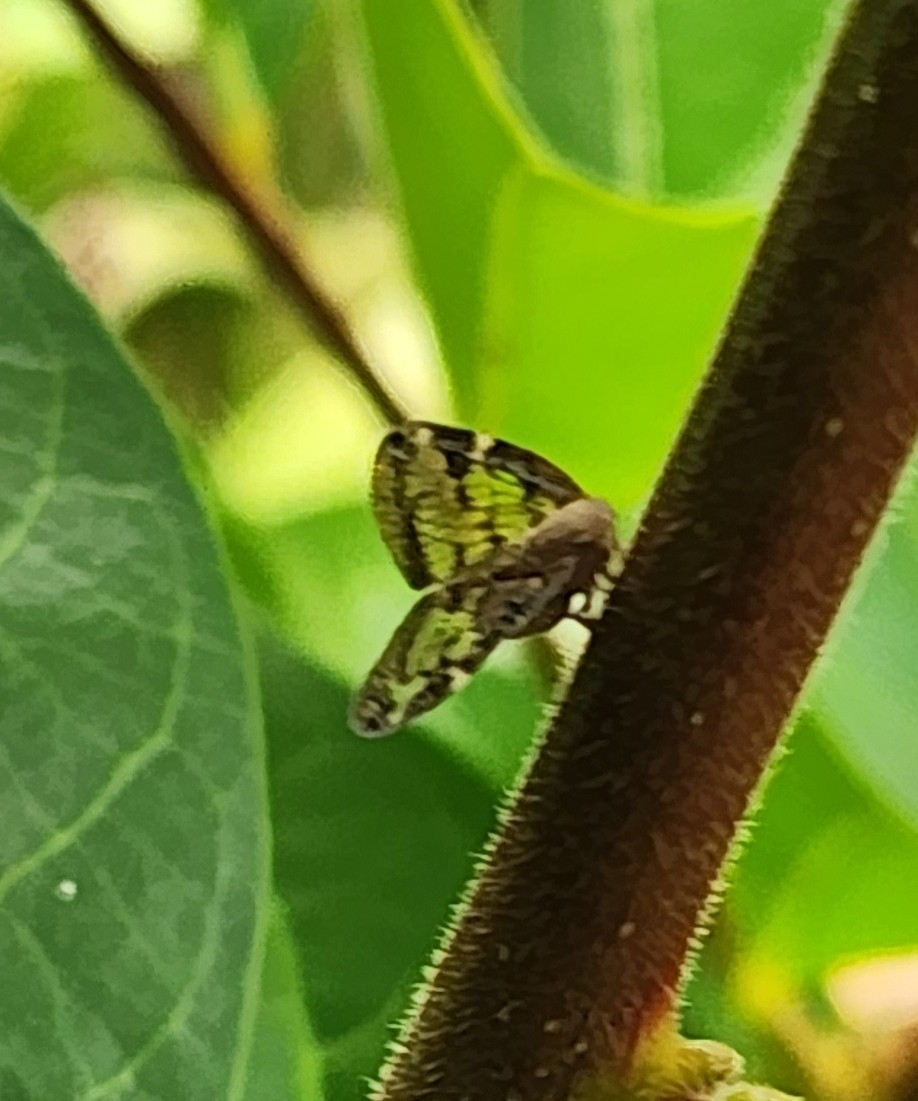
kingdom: Animalia
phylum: Arthropoda
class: Insecta
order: Hemiptera
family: Ricaniidae
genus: Scolypopa
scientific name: Scolypopa australis
